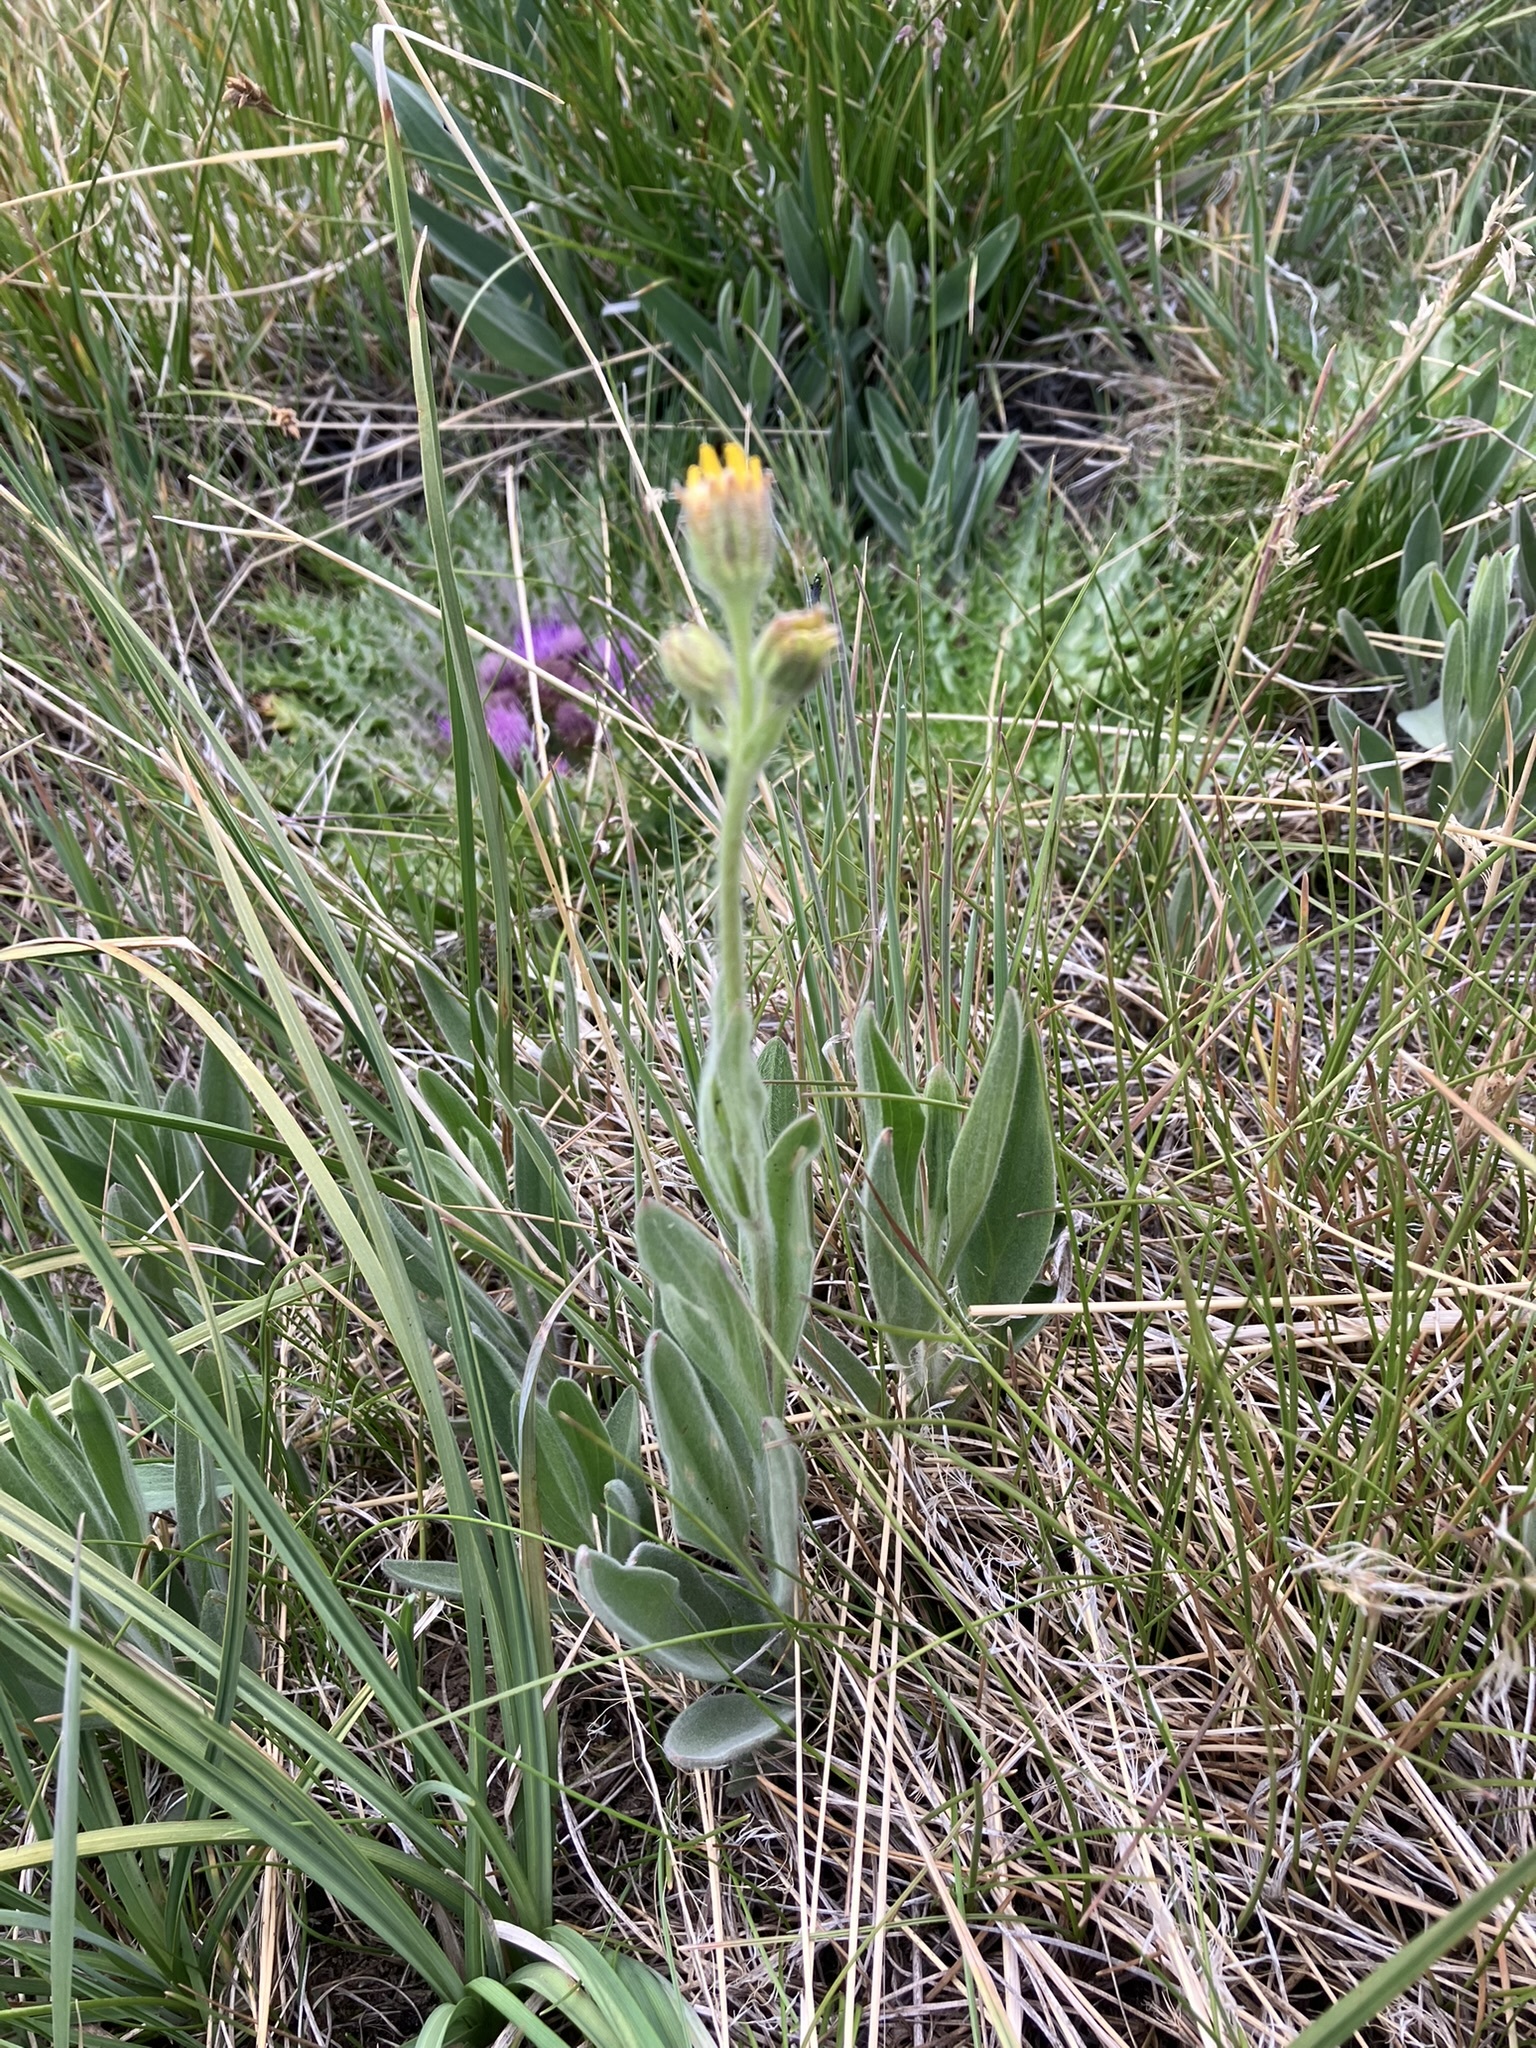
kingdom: Plantae
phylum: Tracheophyta
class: Magnoliopsida
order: Asterales
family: Asteraceae
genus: Arnica
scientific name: Arnica parryi
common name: Parry's arnica
